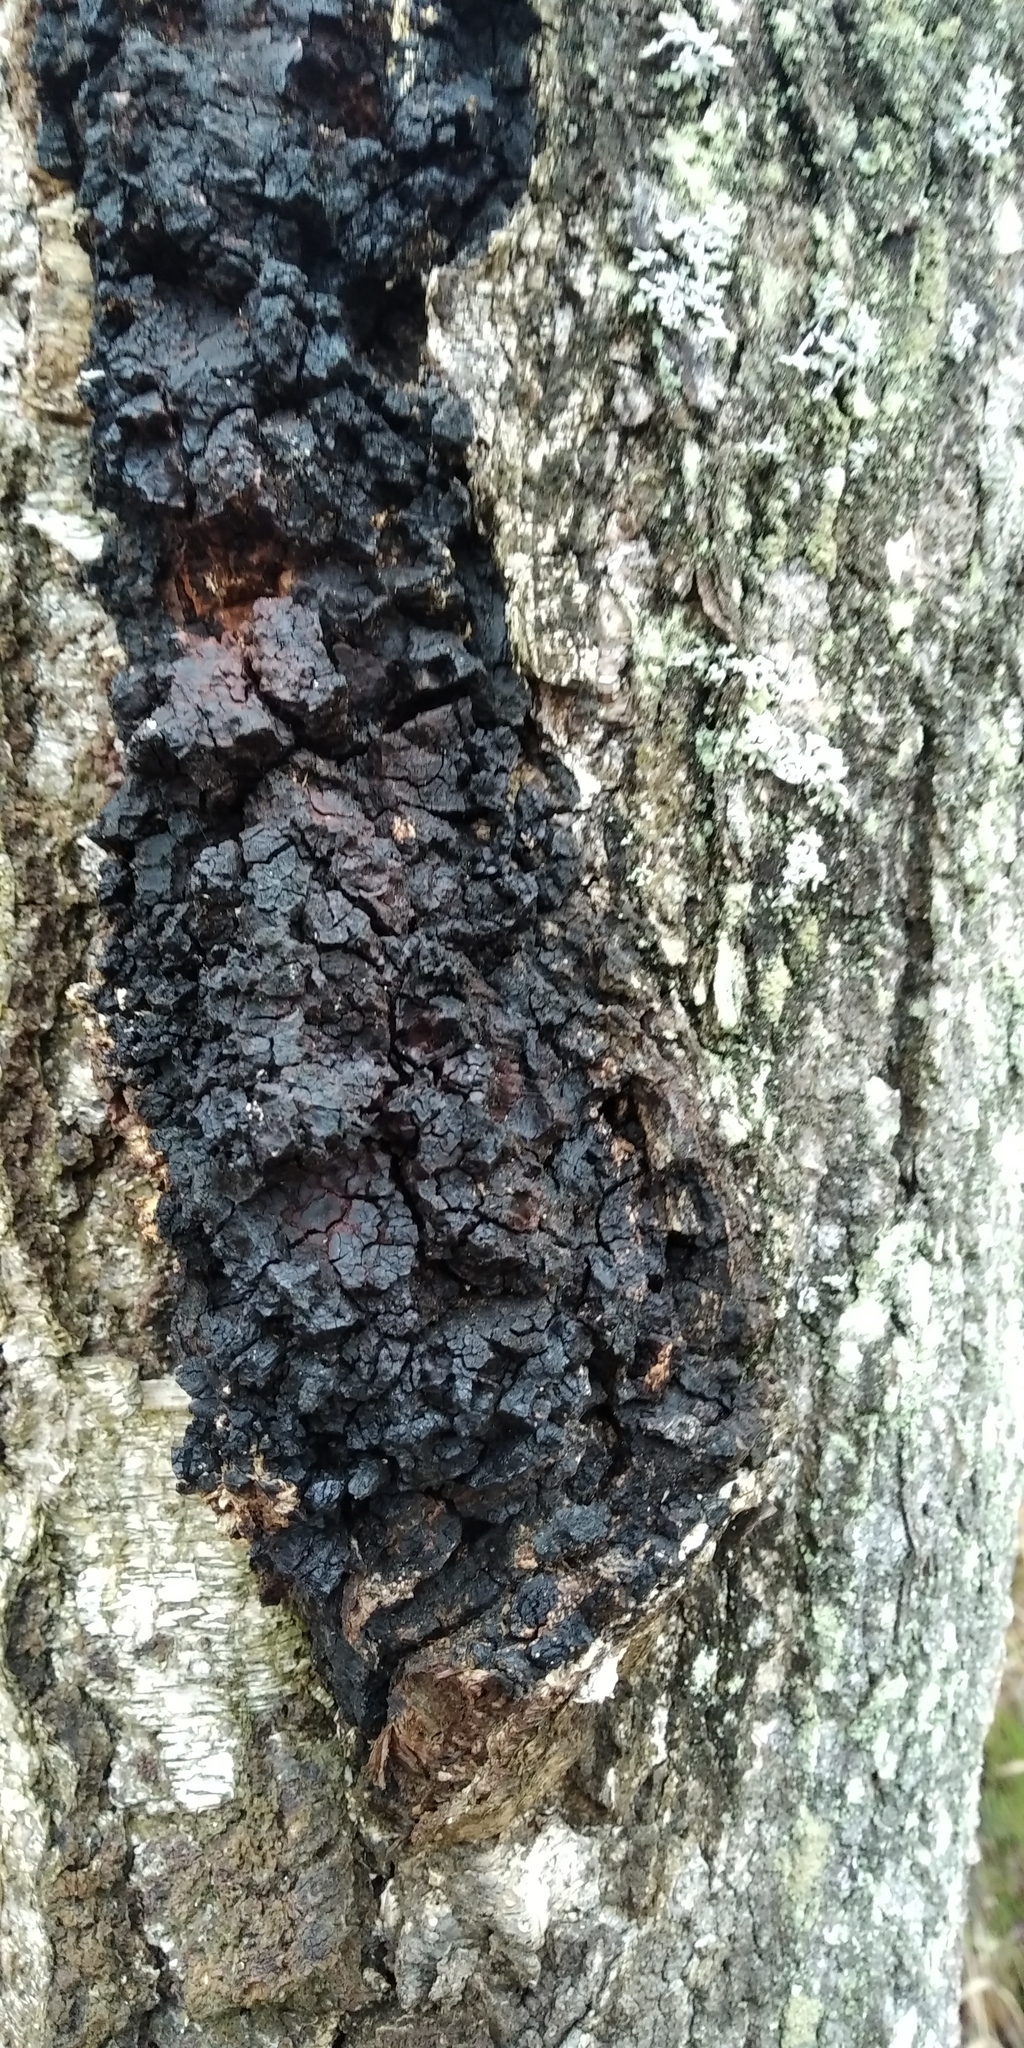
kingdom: Fungi
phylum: Basidiomycota
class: Agaricomycetes
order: Hymenochaetales
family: Hymenochaetaceae
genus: Inonotus
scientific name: Inonotus obliquus
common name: Chaga
